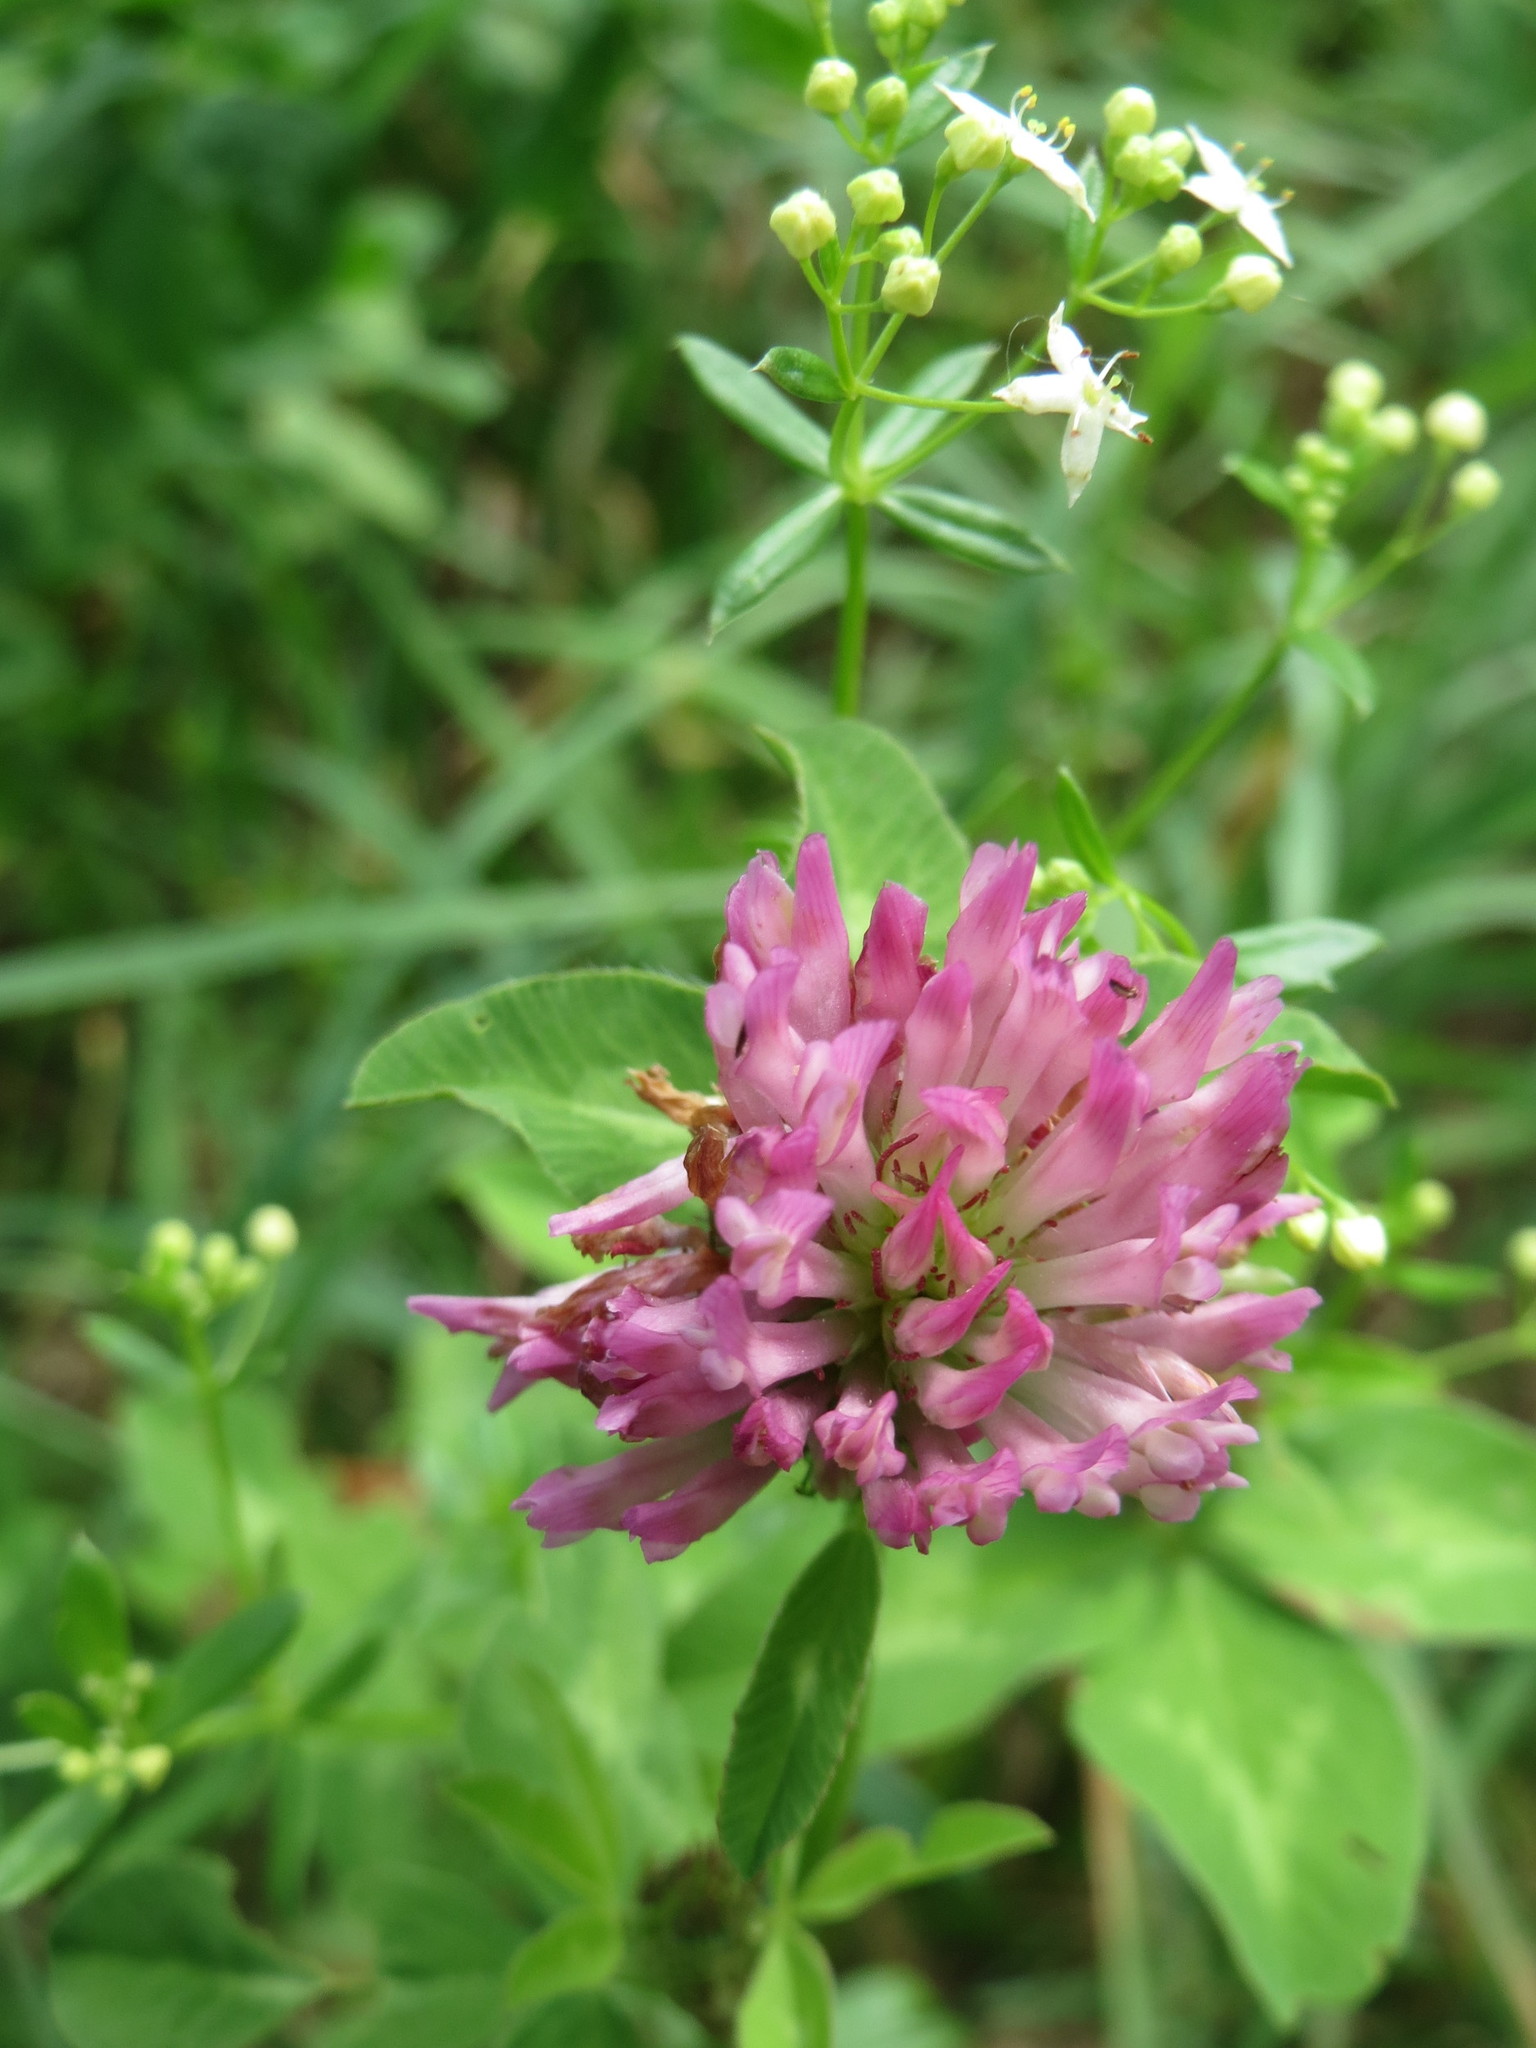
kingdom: Plantae
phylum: Tracheophyta
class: Magnoliopsida
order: Fabales
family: Fabaceae
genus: Trifolium
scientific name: Trifolium pratense
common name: Red clover
